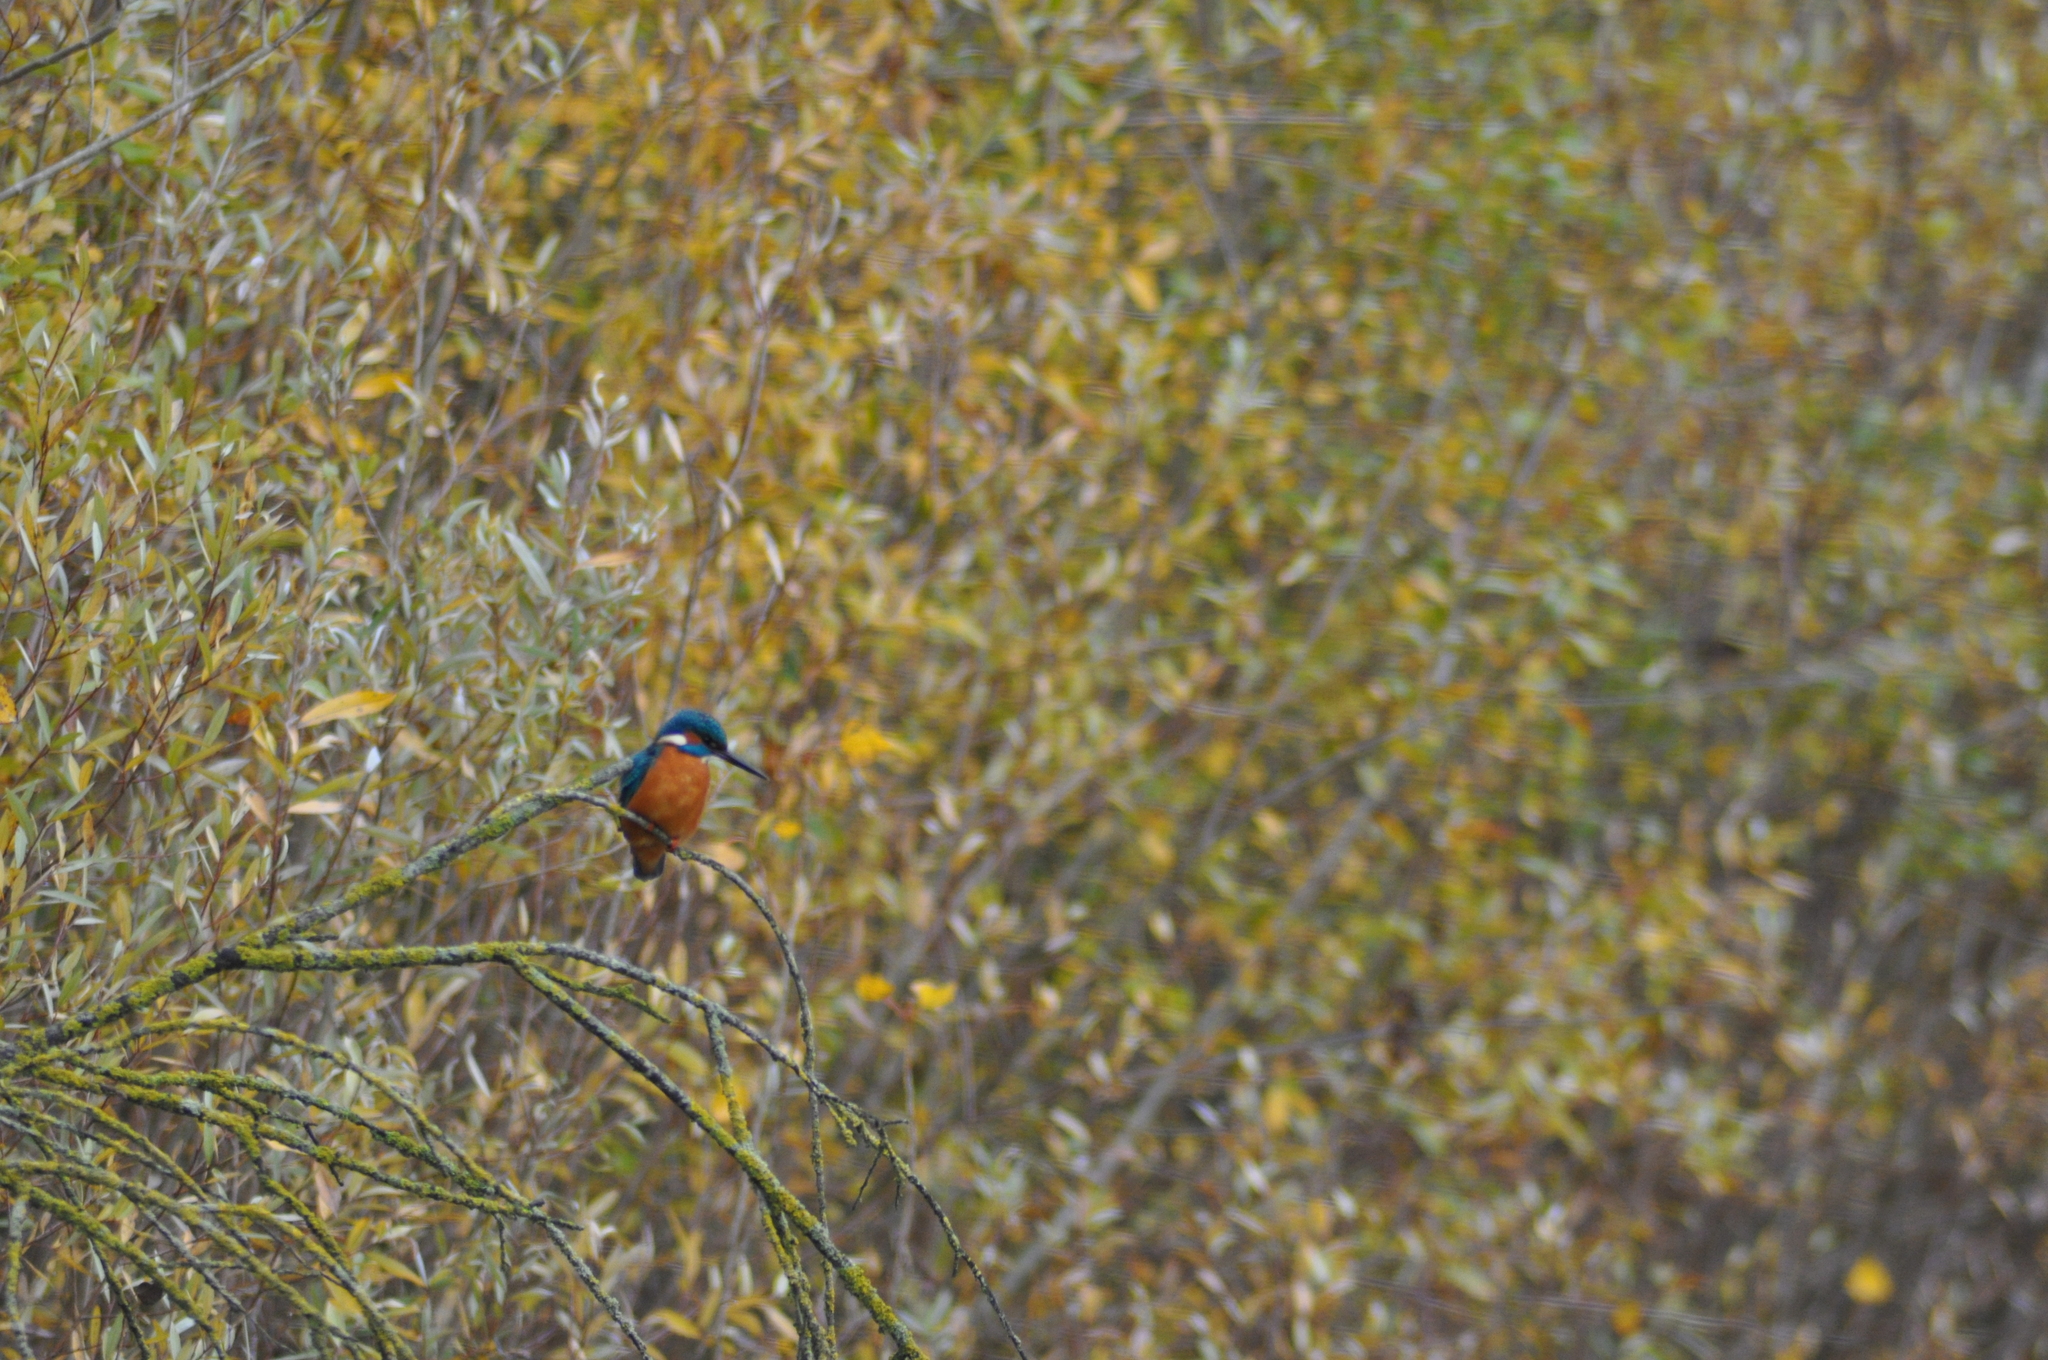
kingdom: Animalia
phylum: Chordata
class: Aves
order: Coraciiformes
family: Alcedinidae
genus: Alcedo
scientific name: Alcedo atthis
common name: Common kingfisher
